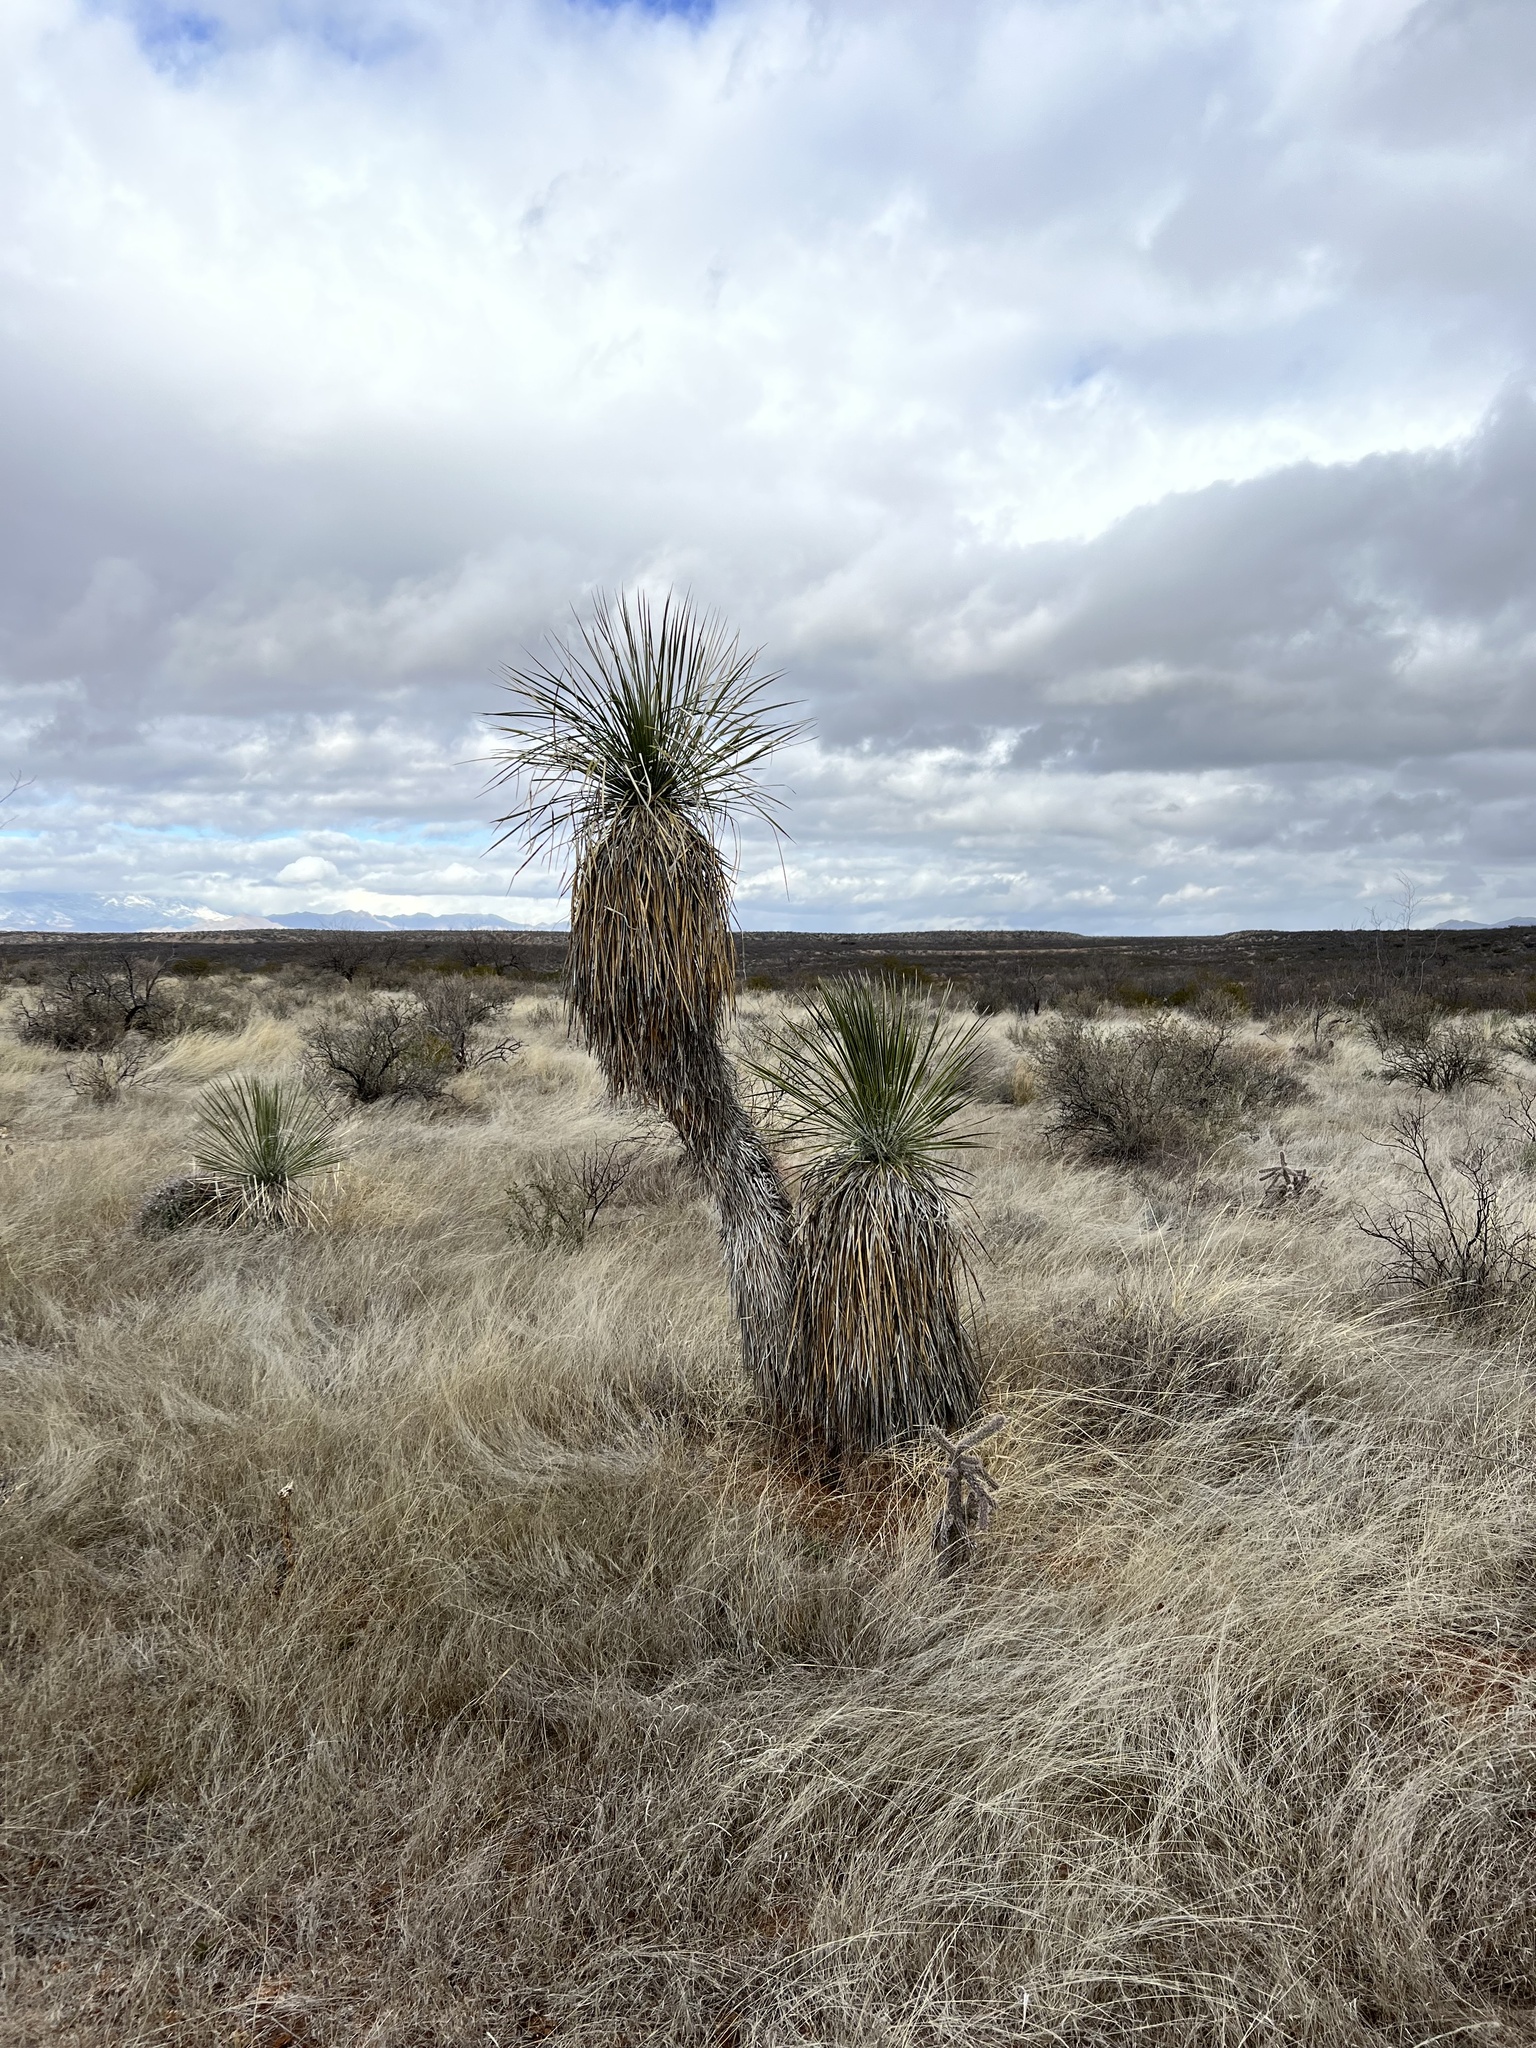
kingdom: Plantae
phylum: Tracheophyta
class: Liliopsida
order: Asparagales
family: Asparagaceae
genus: Yucca
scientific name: Yucca elata
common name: Palmella
